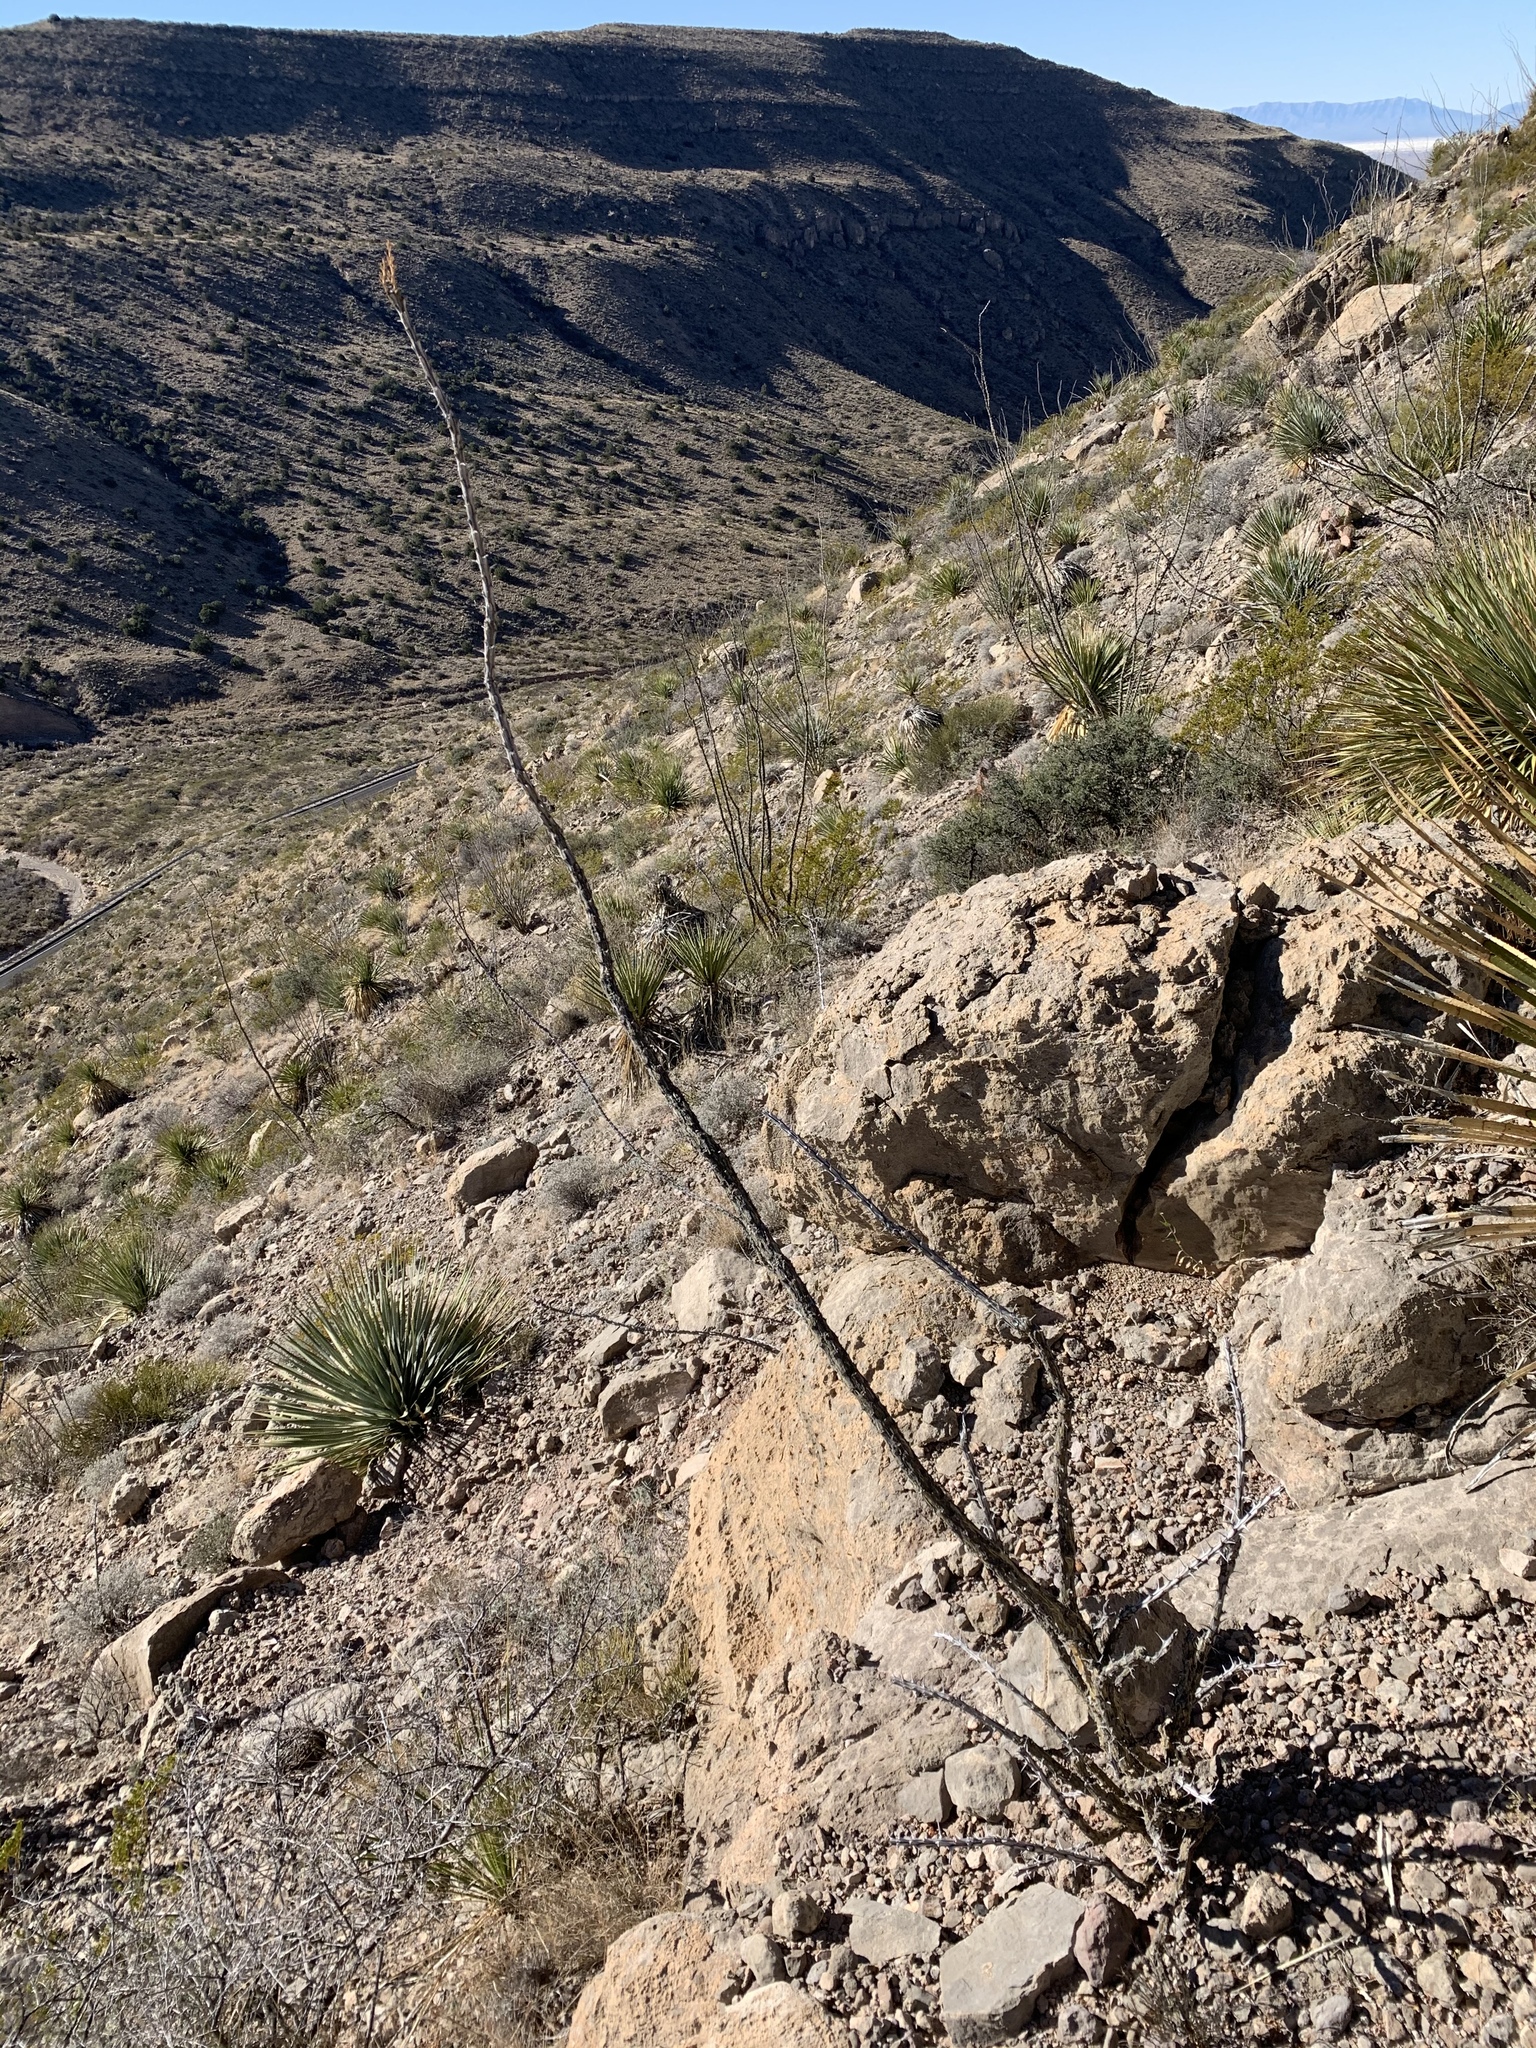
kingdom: Plantae
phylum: Tracheophyta
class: Magnoliopsida
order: Ericales
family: Fouquieriaceae
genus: Fouquieria
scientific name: Fouquieria splendens
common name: Vine-cactus
